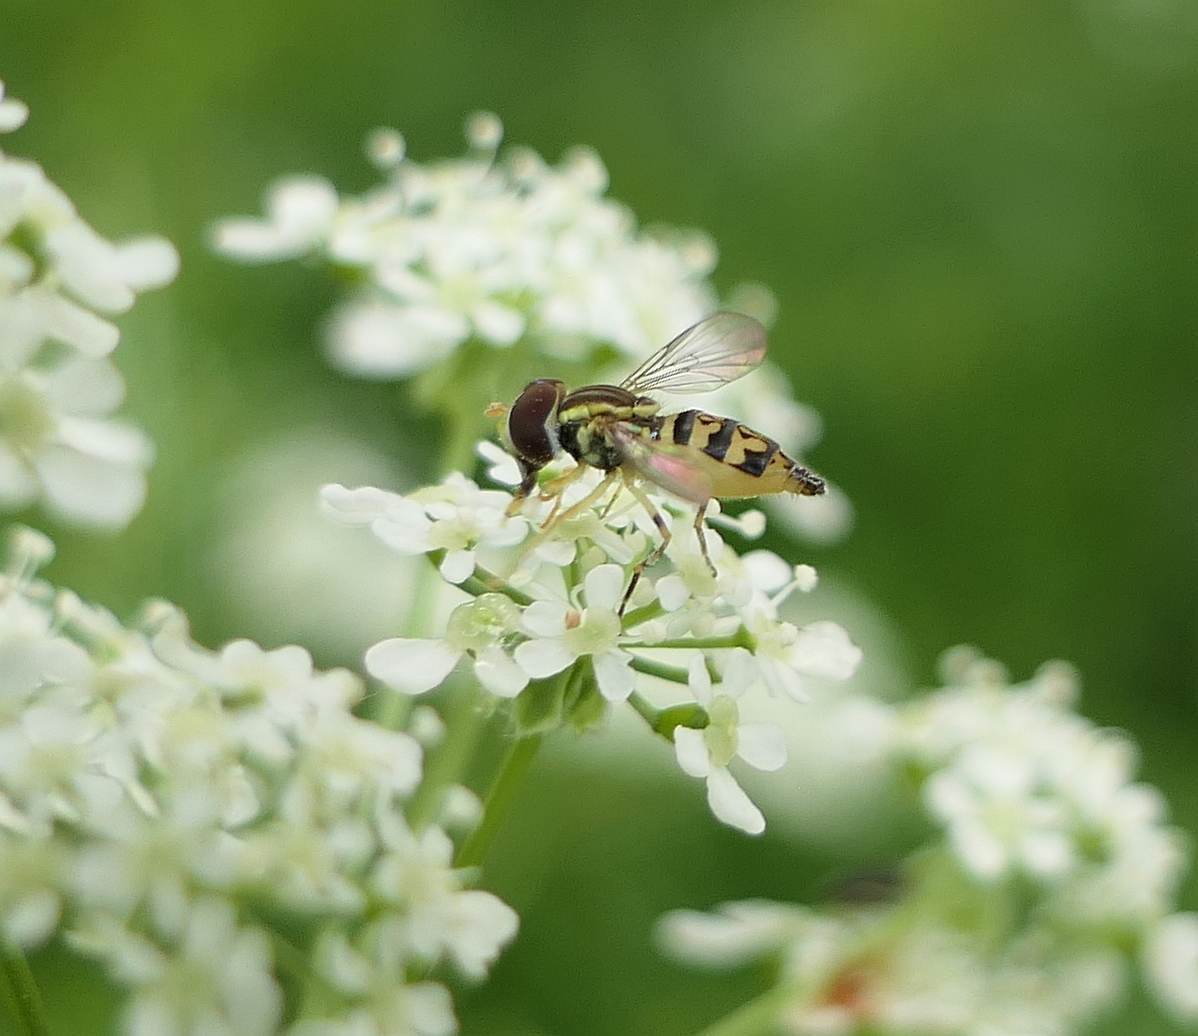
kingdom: Animalia
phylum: Arthropoda
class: Insecta
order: Diptera
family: Syrphidae
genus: Toxomerus
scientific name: Toxomerus geminatus
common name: Eastern calligrapher
